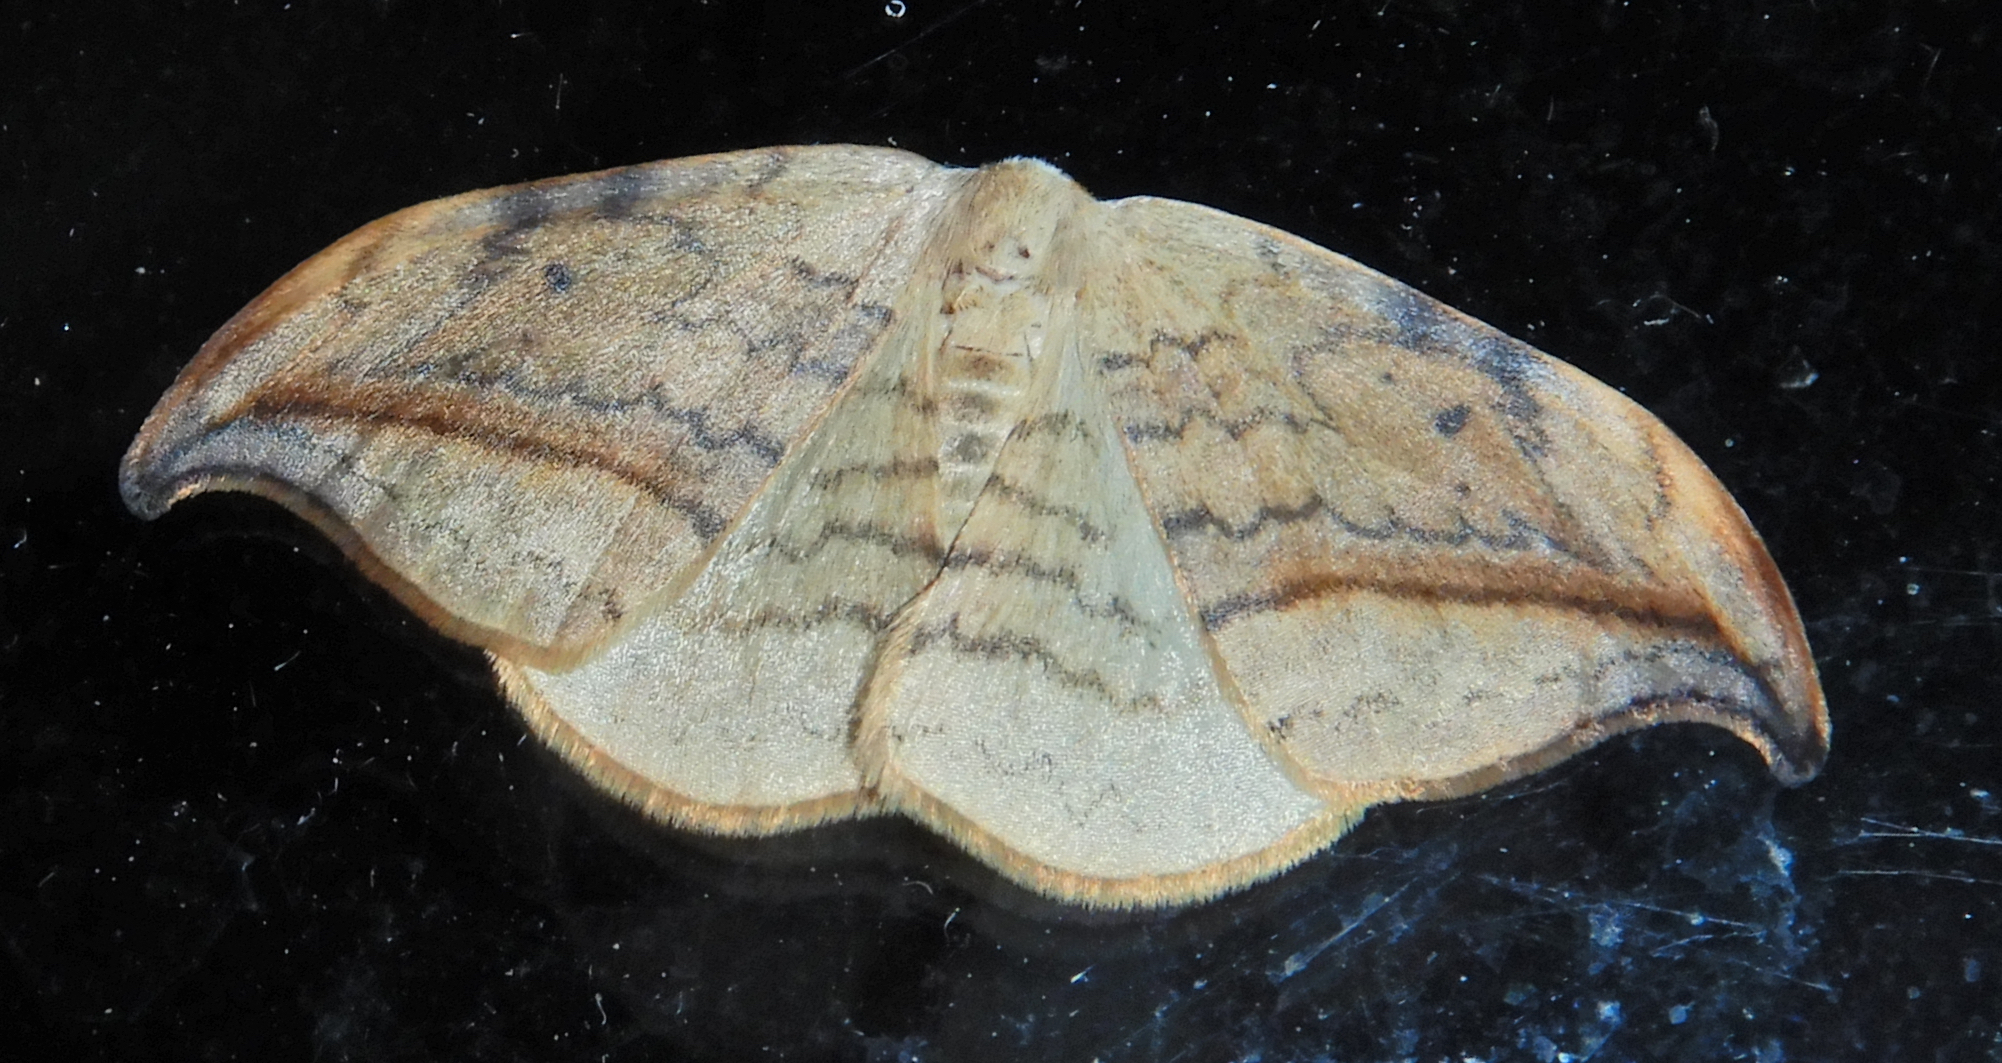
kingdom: Animalia
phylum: Arthropoda
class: Insecta
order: Lepidoptera
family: Drepanidae
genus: Drepana
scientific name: Drepana arcuata
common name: Arched hooktip moth
